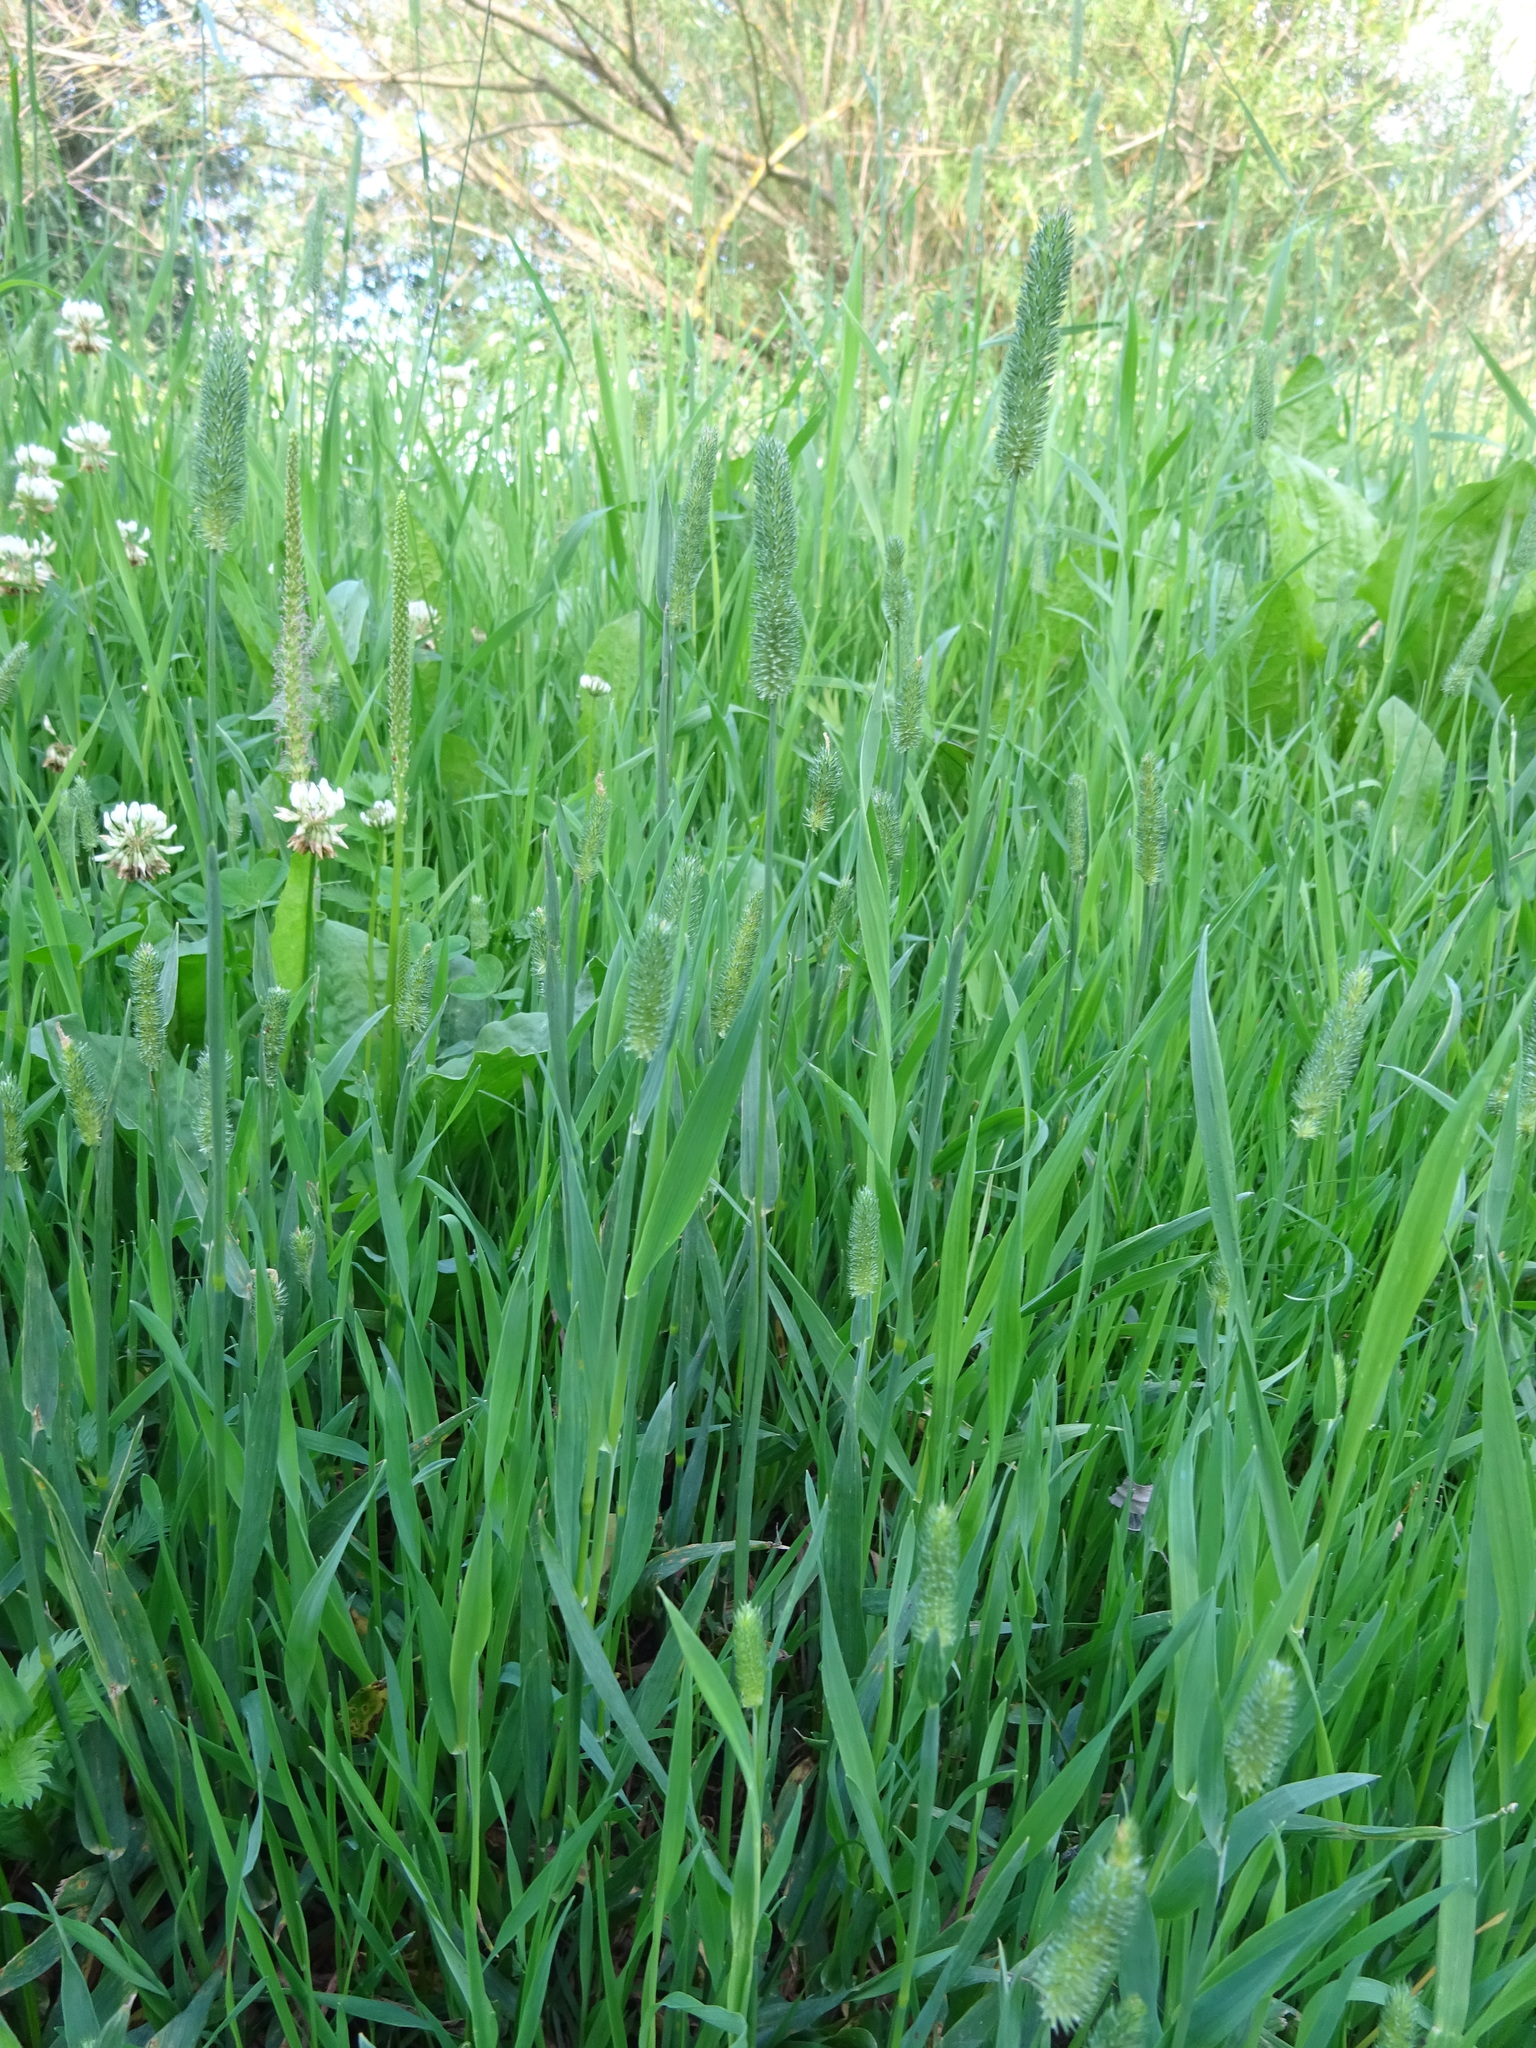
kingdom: Plantae
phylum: Tracheophyta
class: Liliopsida
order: Poales
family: Poaceae
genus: Phleum
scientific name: Phleum pratense
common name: Timothy grass
